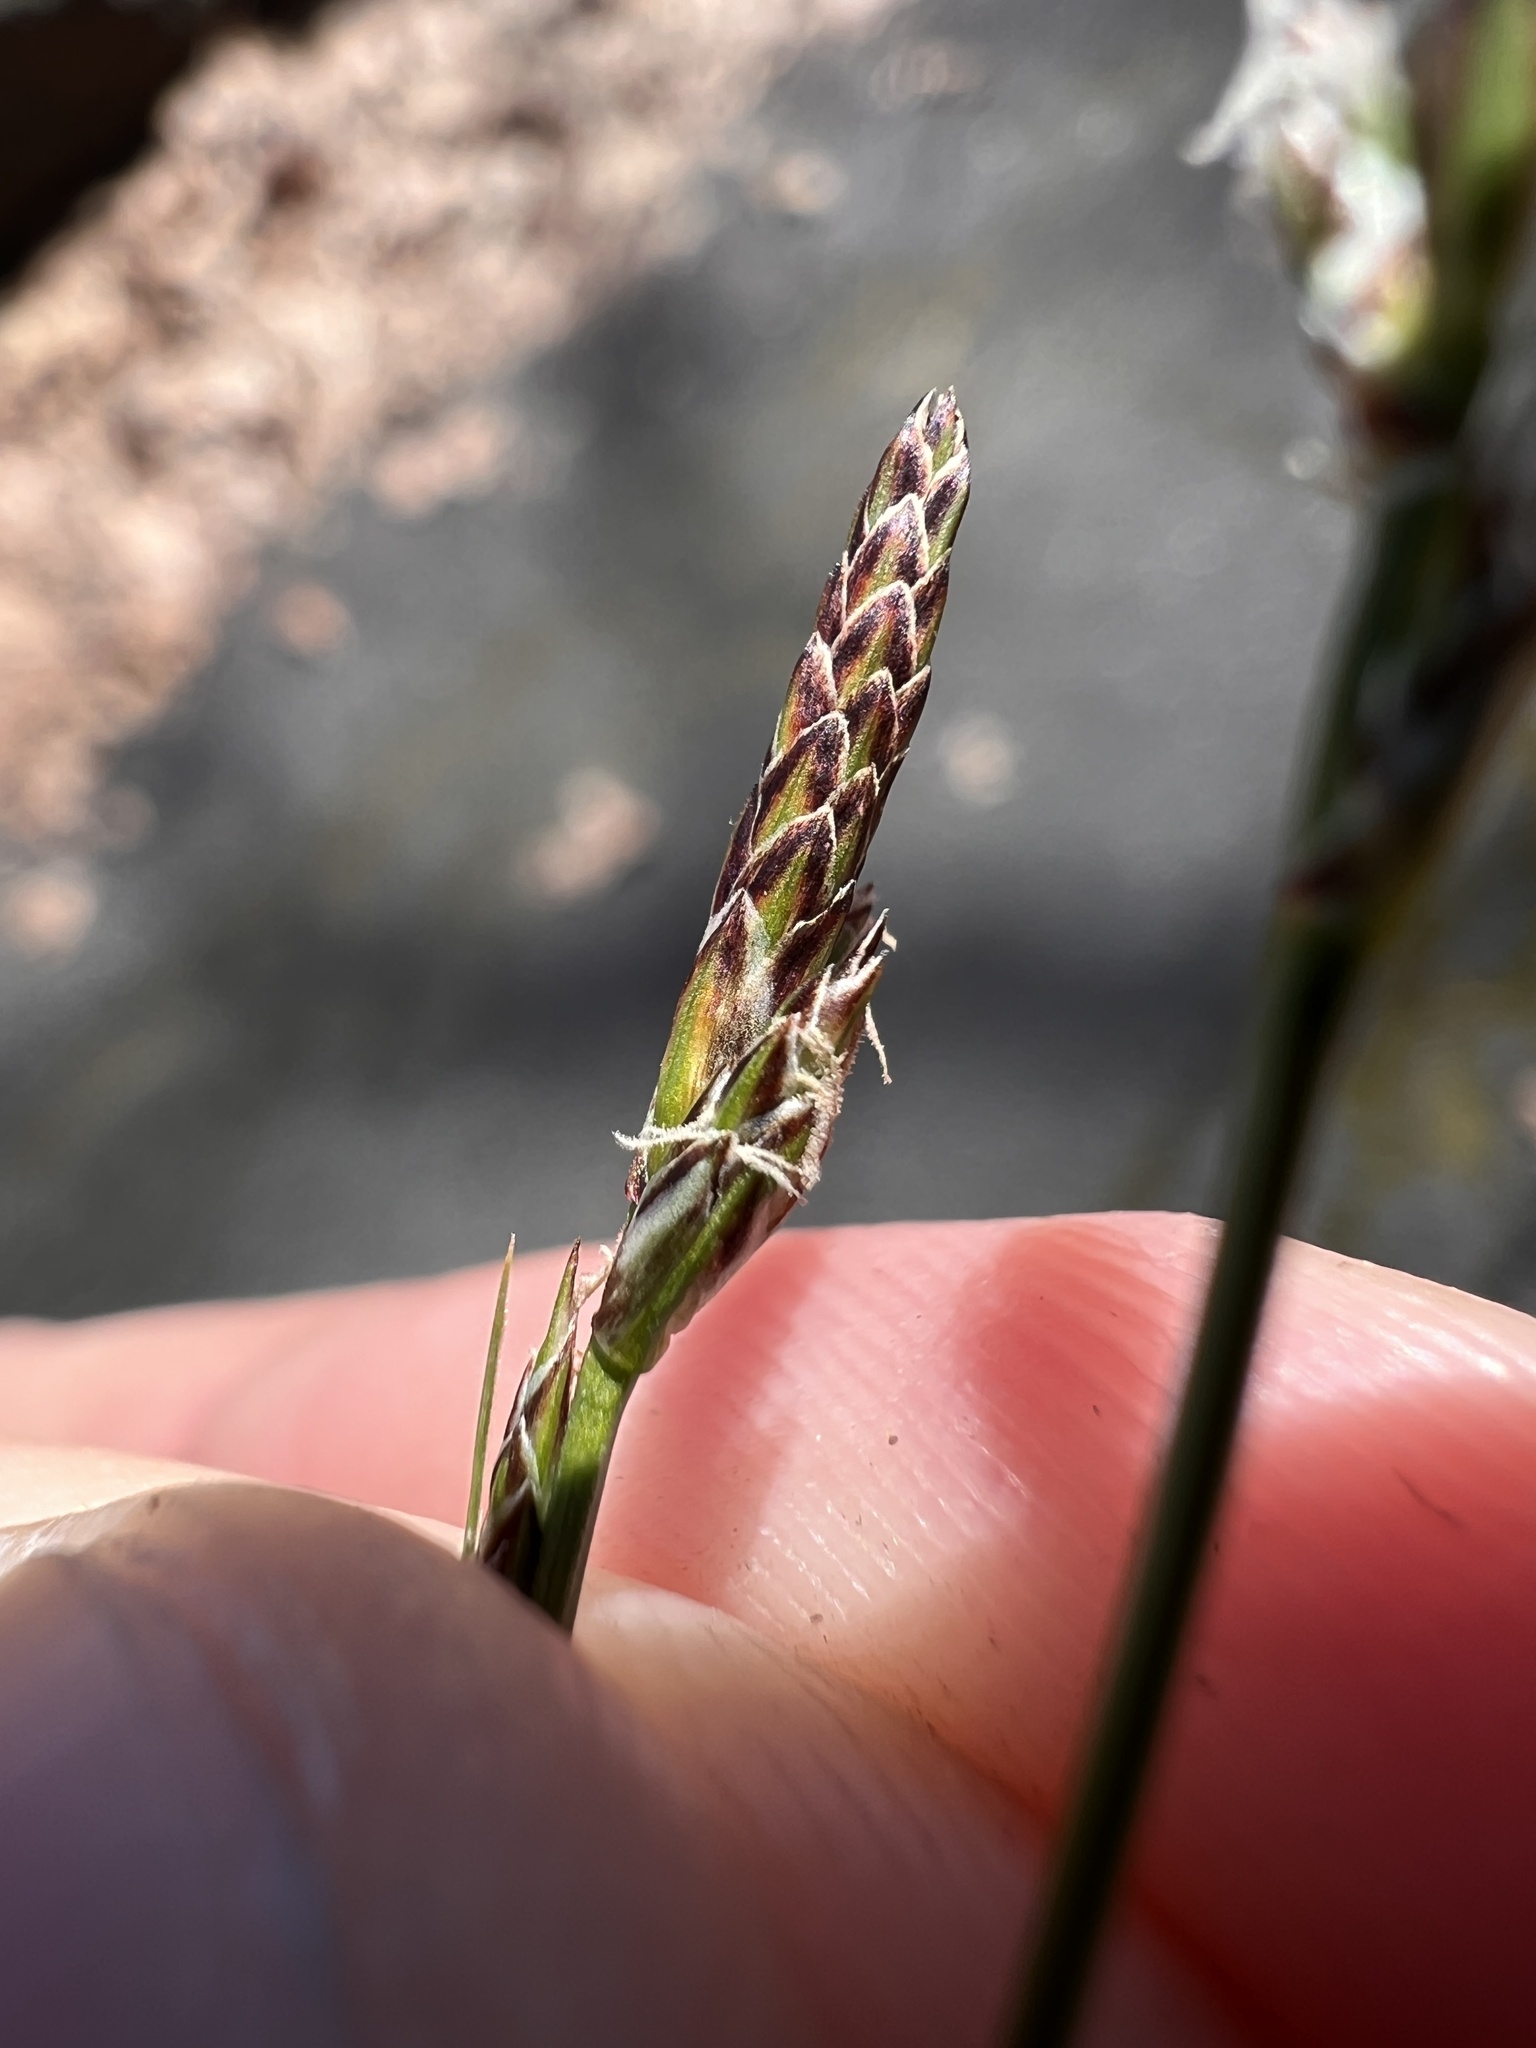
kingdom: Plantae
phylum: Tracheophyta
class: Liliopsida
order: Poales
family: Cyperaceae
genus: Carex
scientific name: Carex albicans
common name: Bellow-beaked sedge
